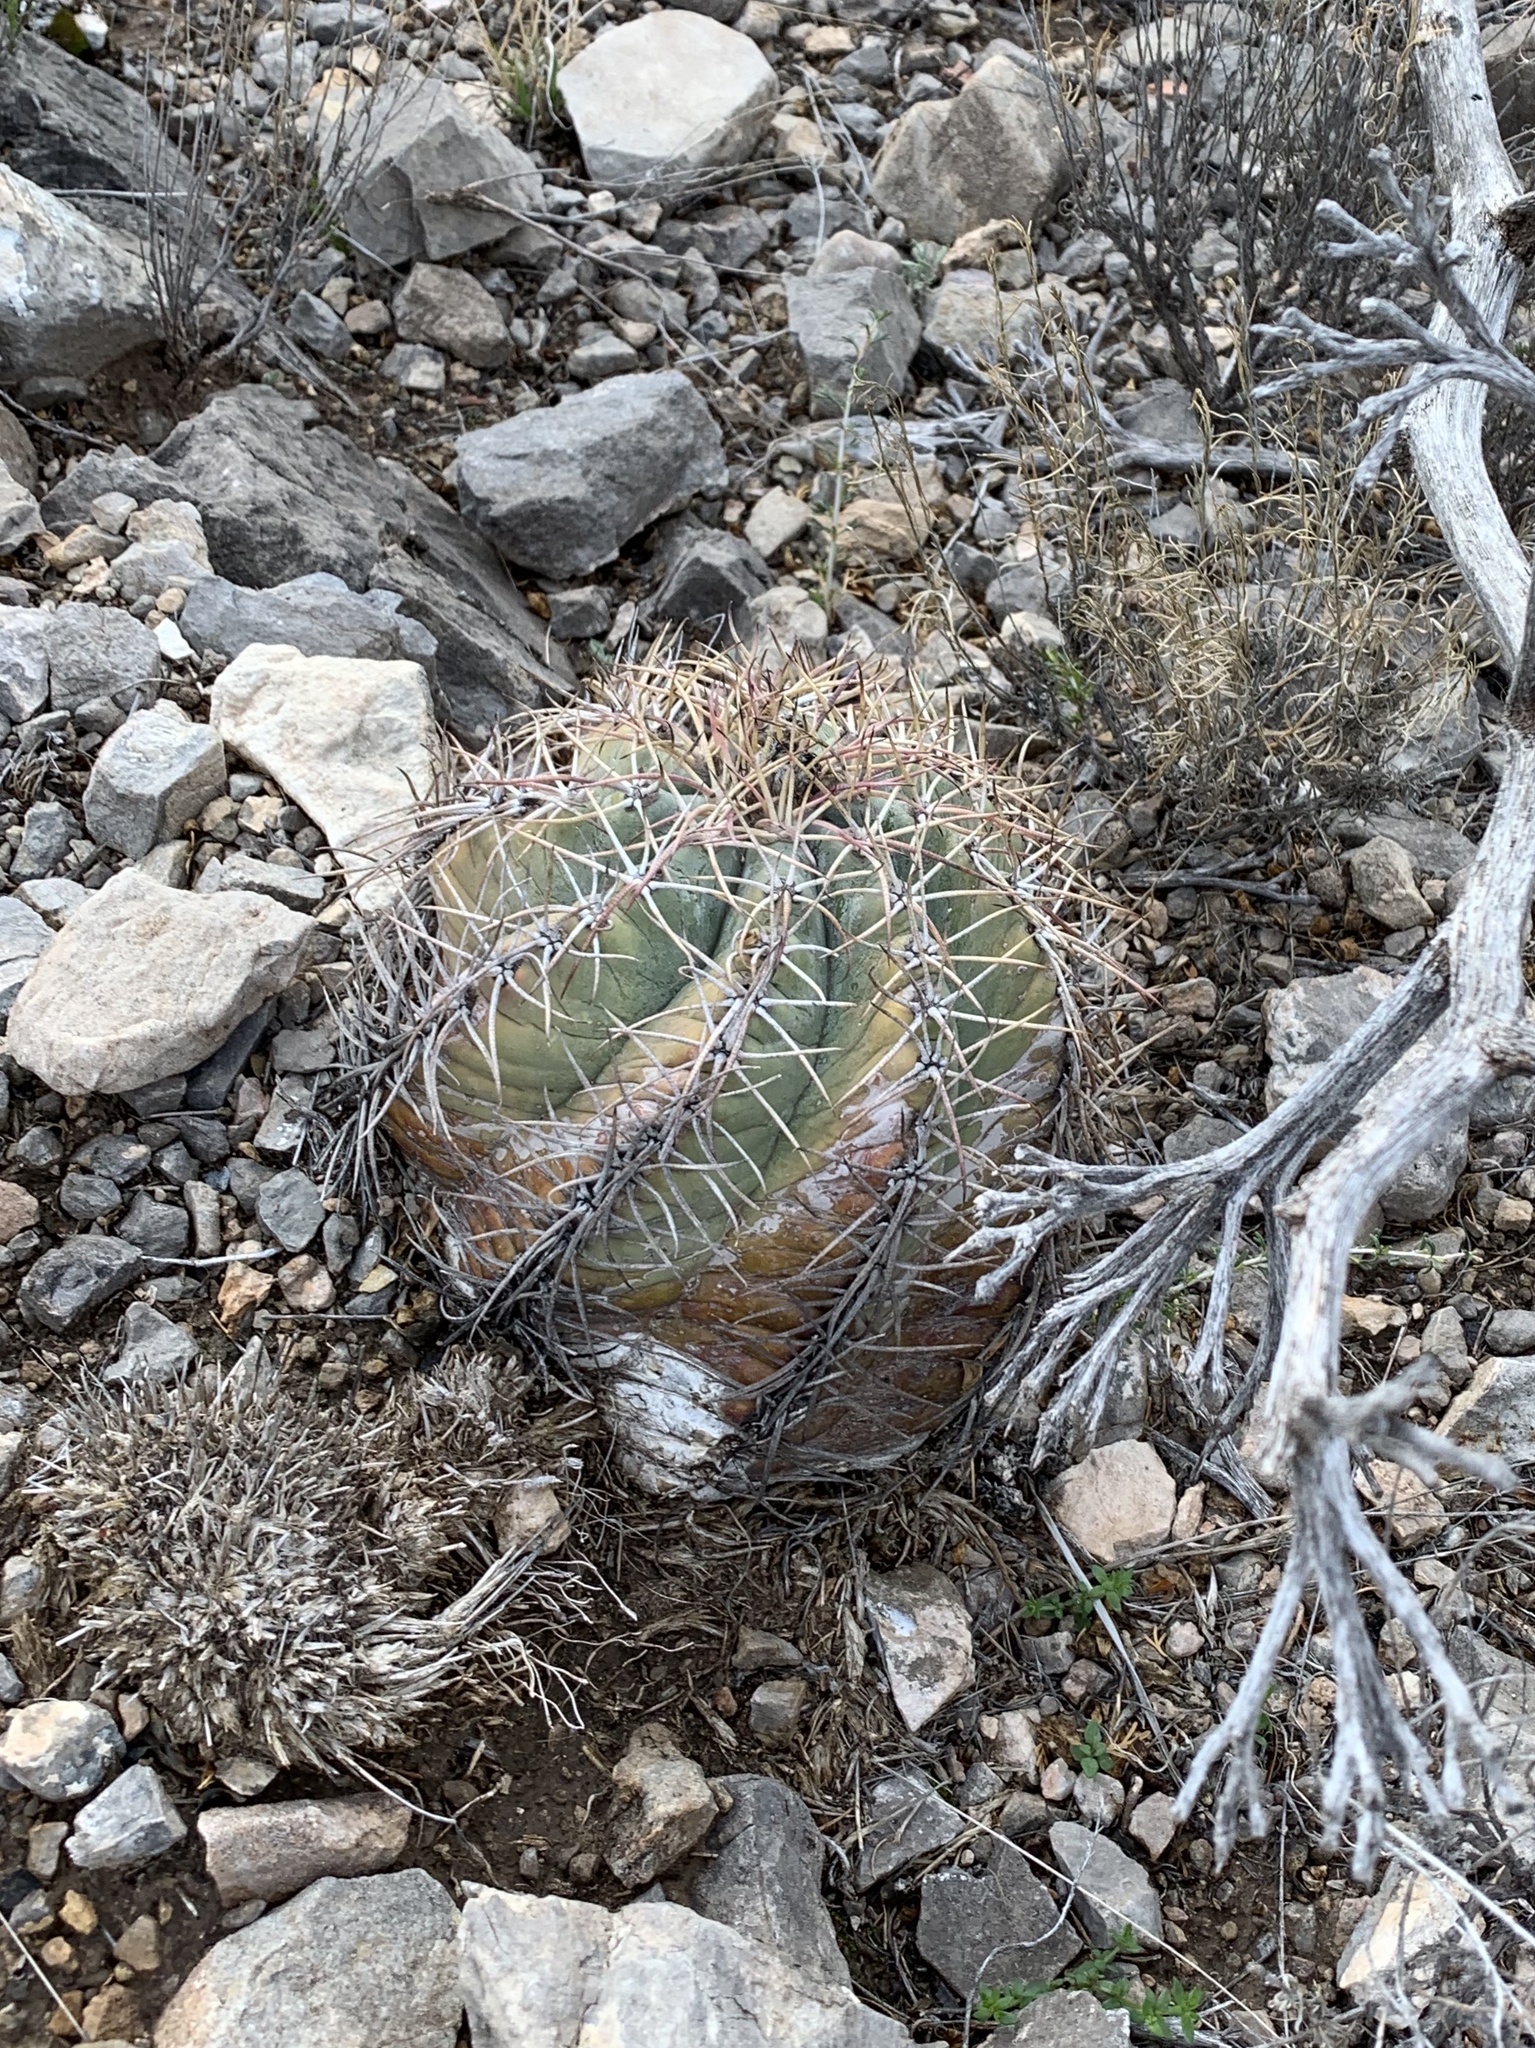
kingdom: Plantae
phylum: Tracheophyta
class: Magnoliopsida
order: Caryophyllales
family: Cactaceae
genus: Echinocactus
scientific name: Echinocactus horizonthalonius
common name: Devilshead
